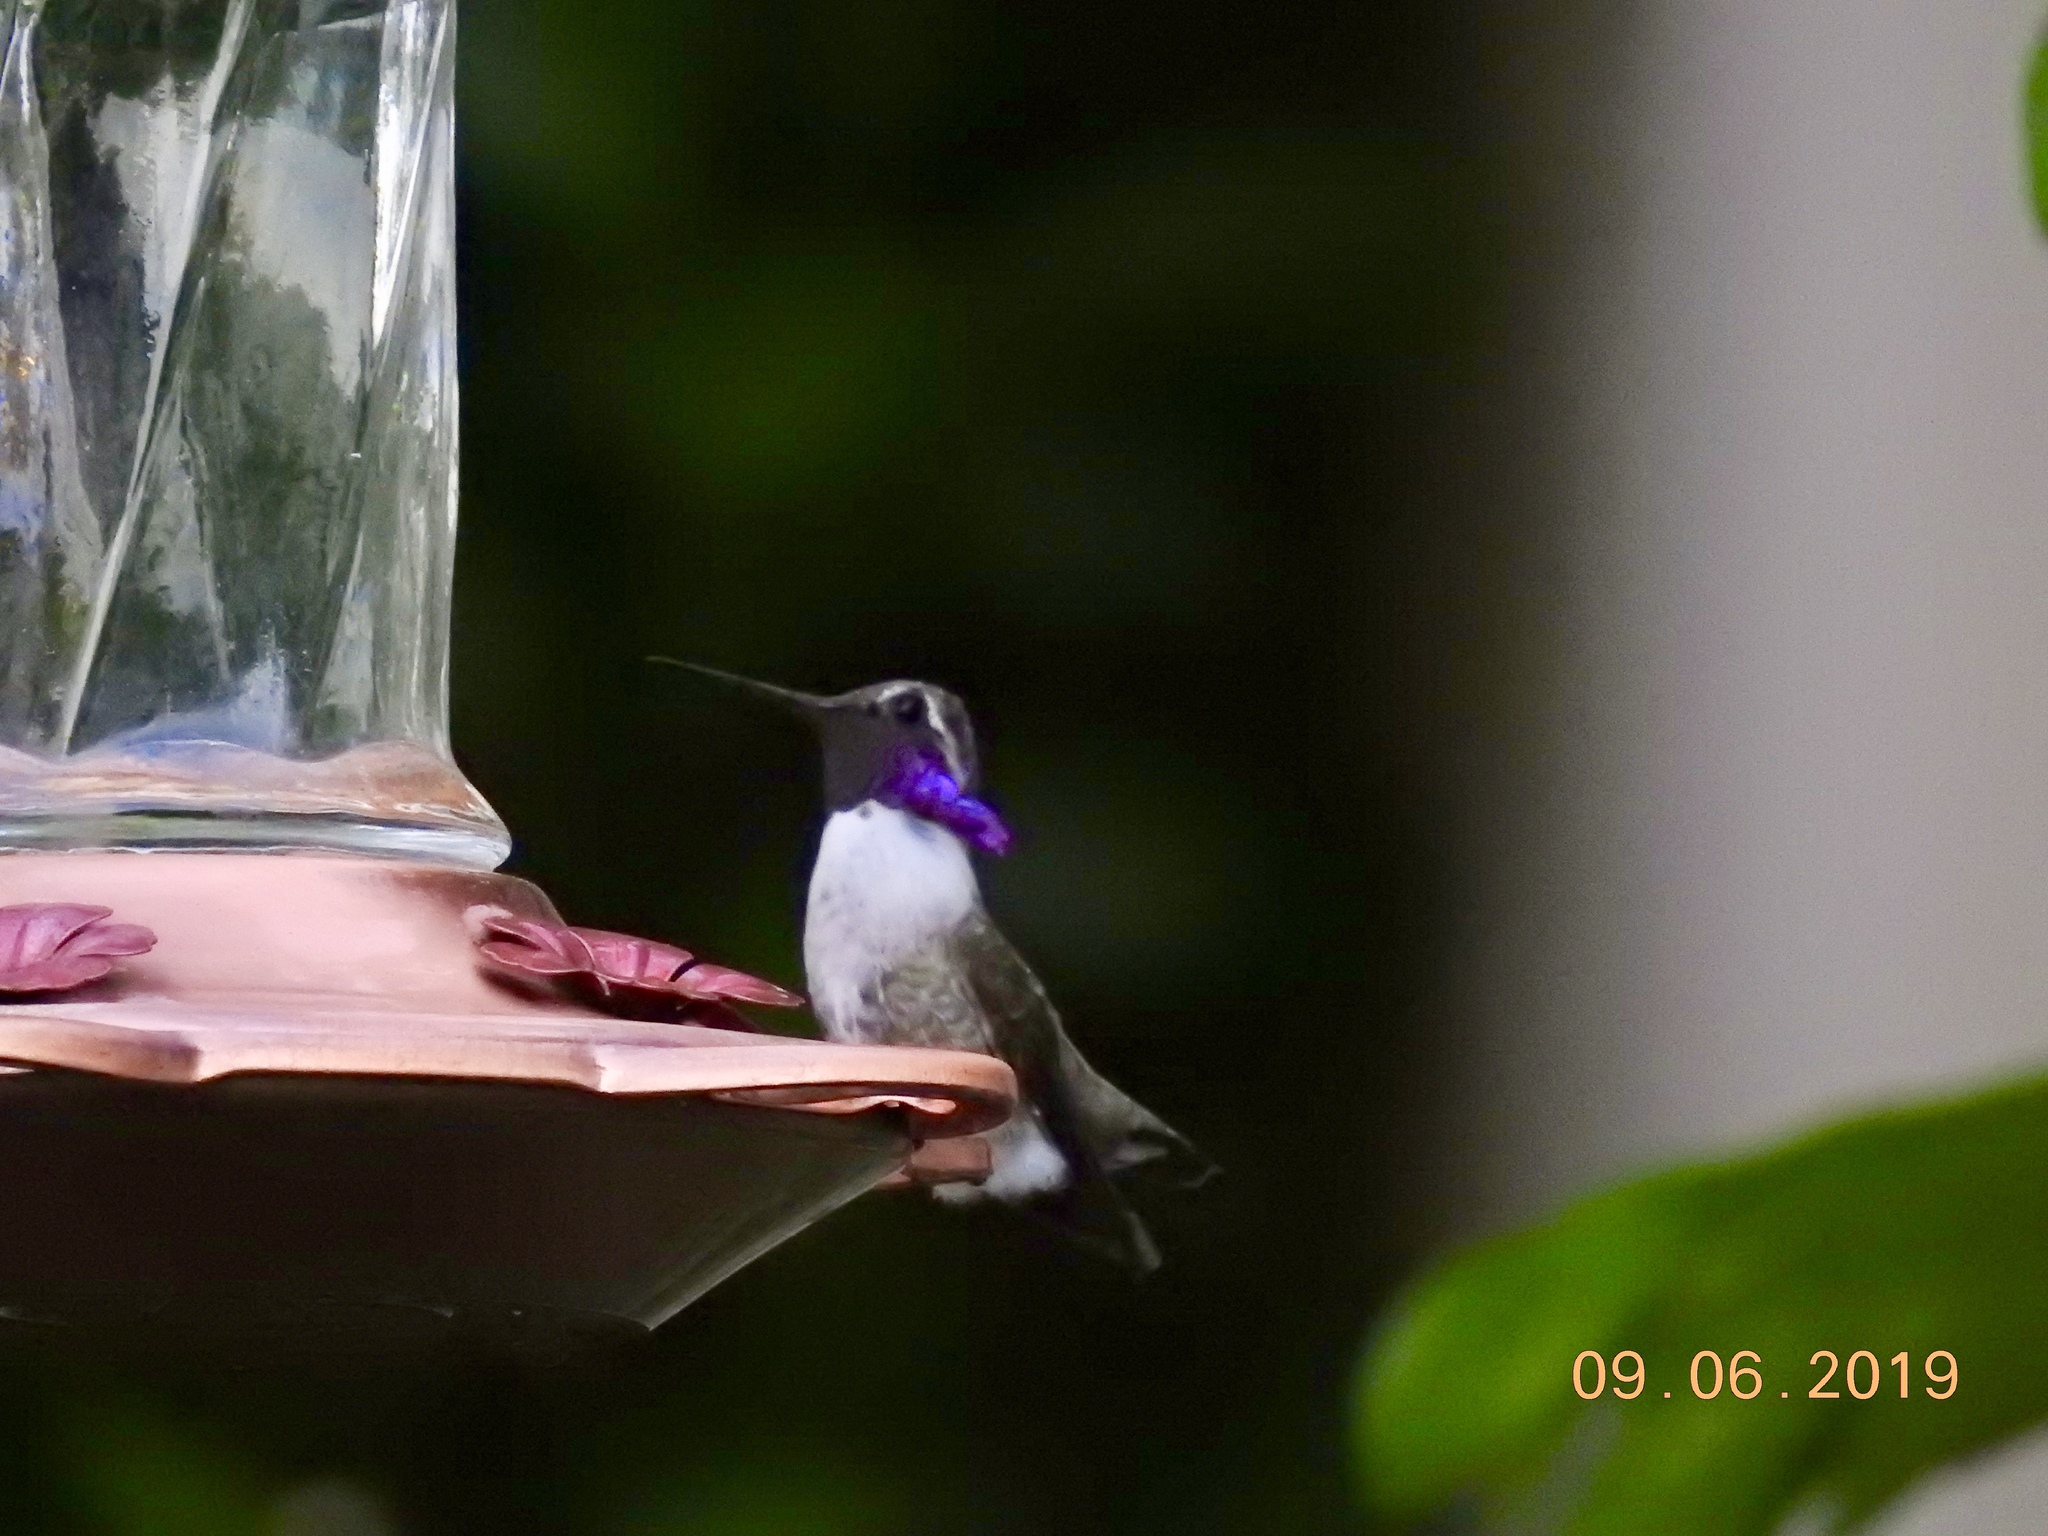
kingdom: Animalia
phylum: Chordata
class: Aves
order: Apodiformes
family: Trochilidae
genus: Calypte
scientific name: Calypte costae
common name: Costa's hummingbird
